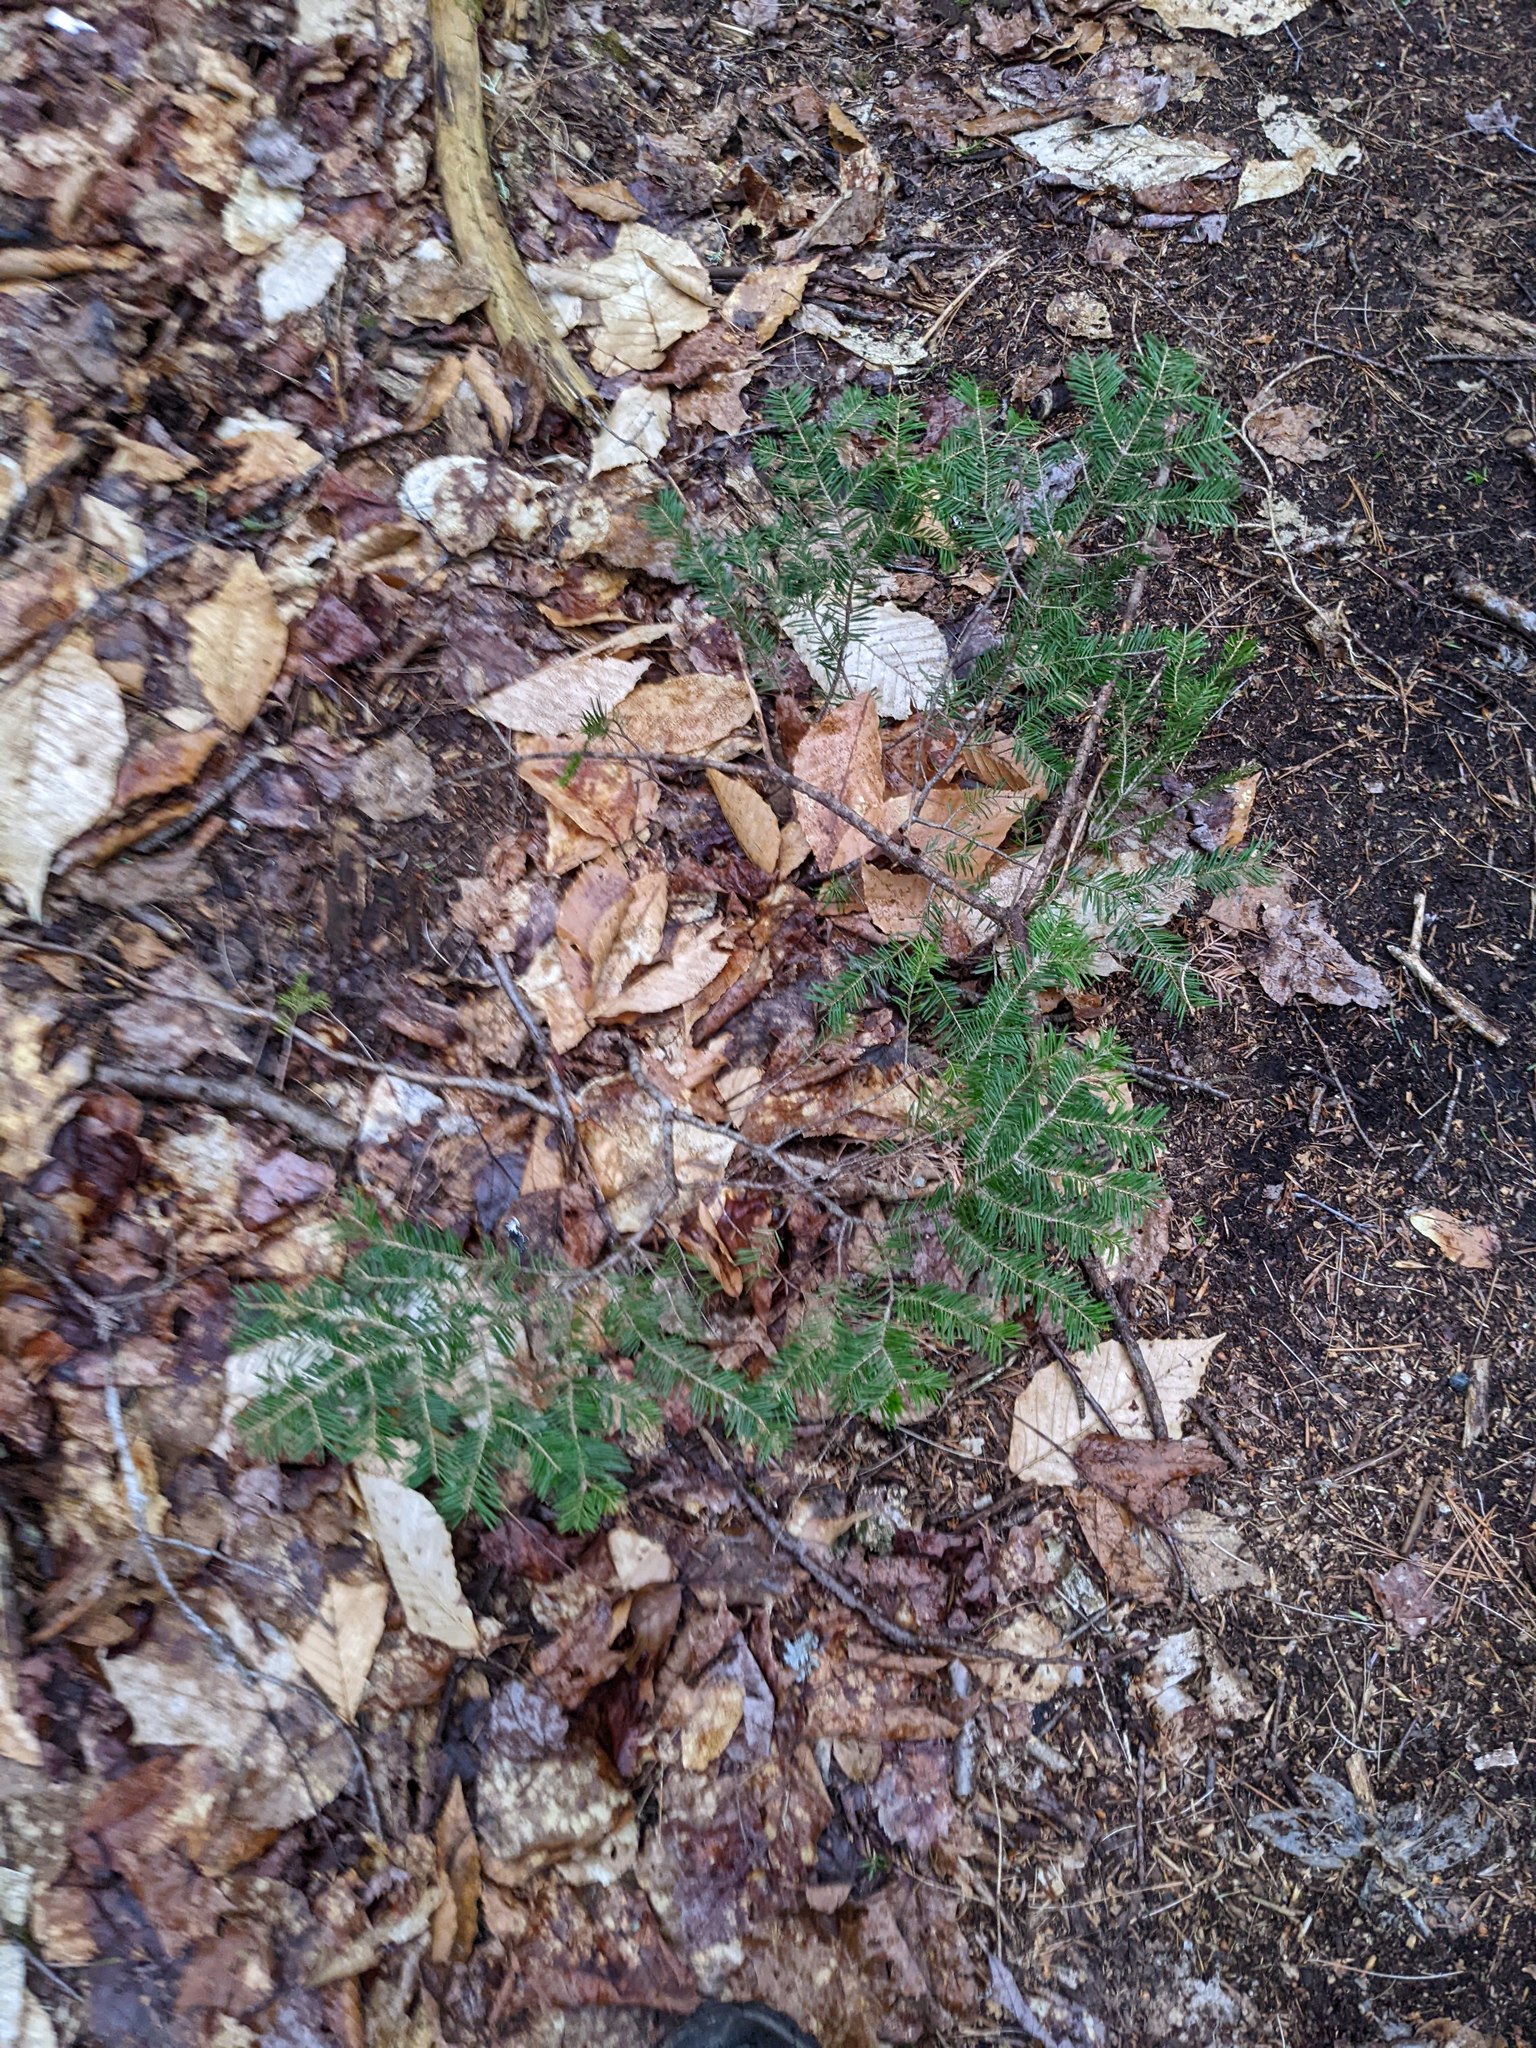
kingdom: Plantae
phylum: Tracheophyta
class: Pinopsida
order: Pinales
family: Pinaceae
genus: Abies
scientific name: Abies balsamea
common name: Balsam fir
